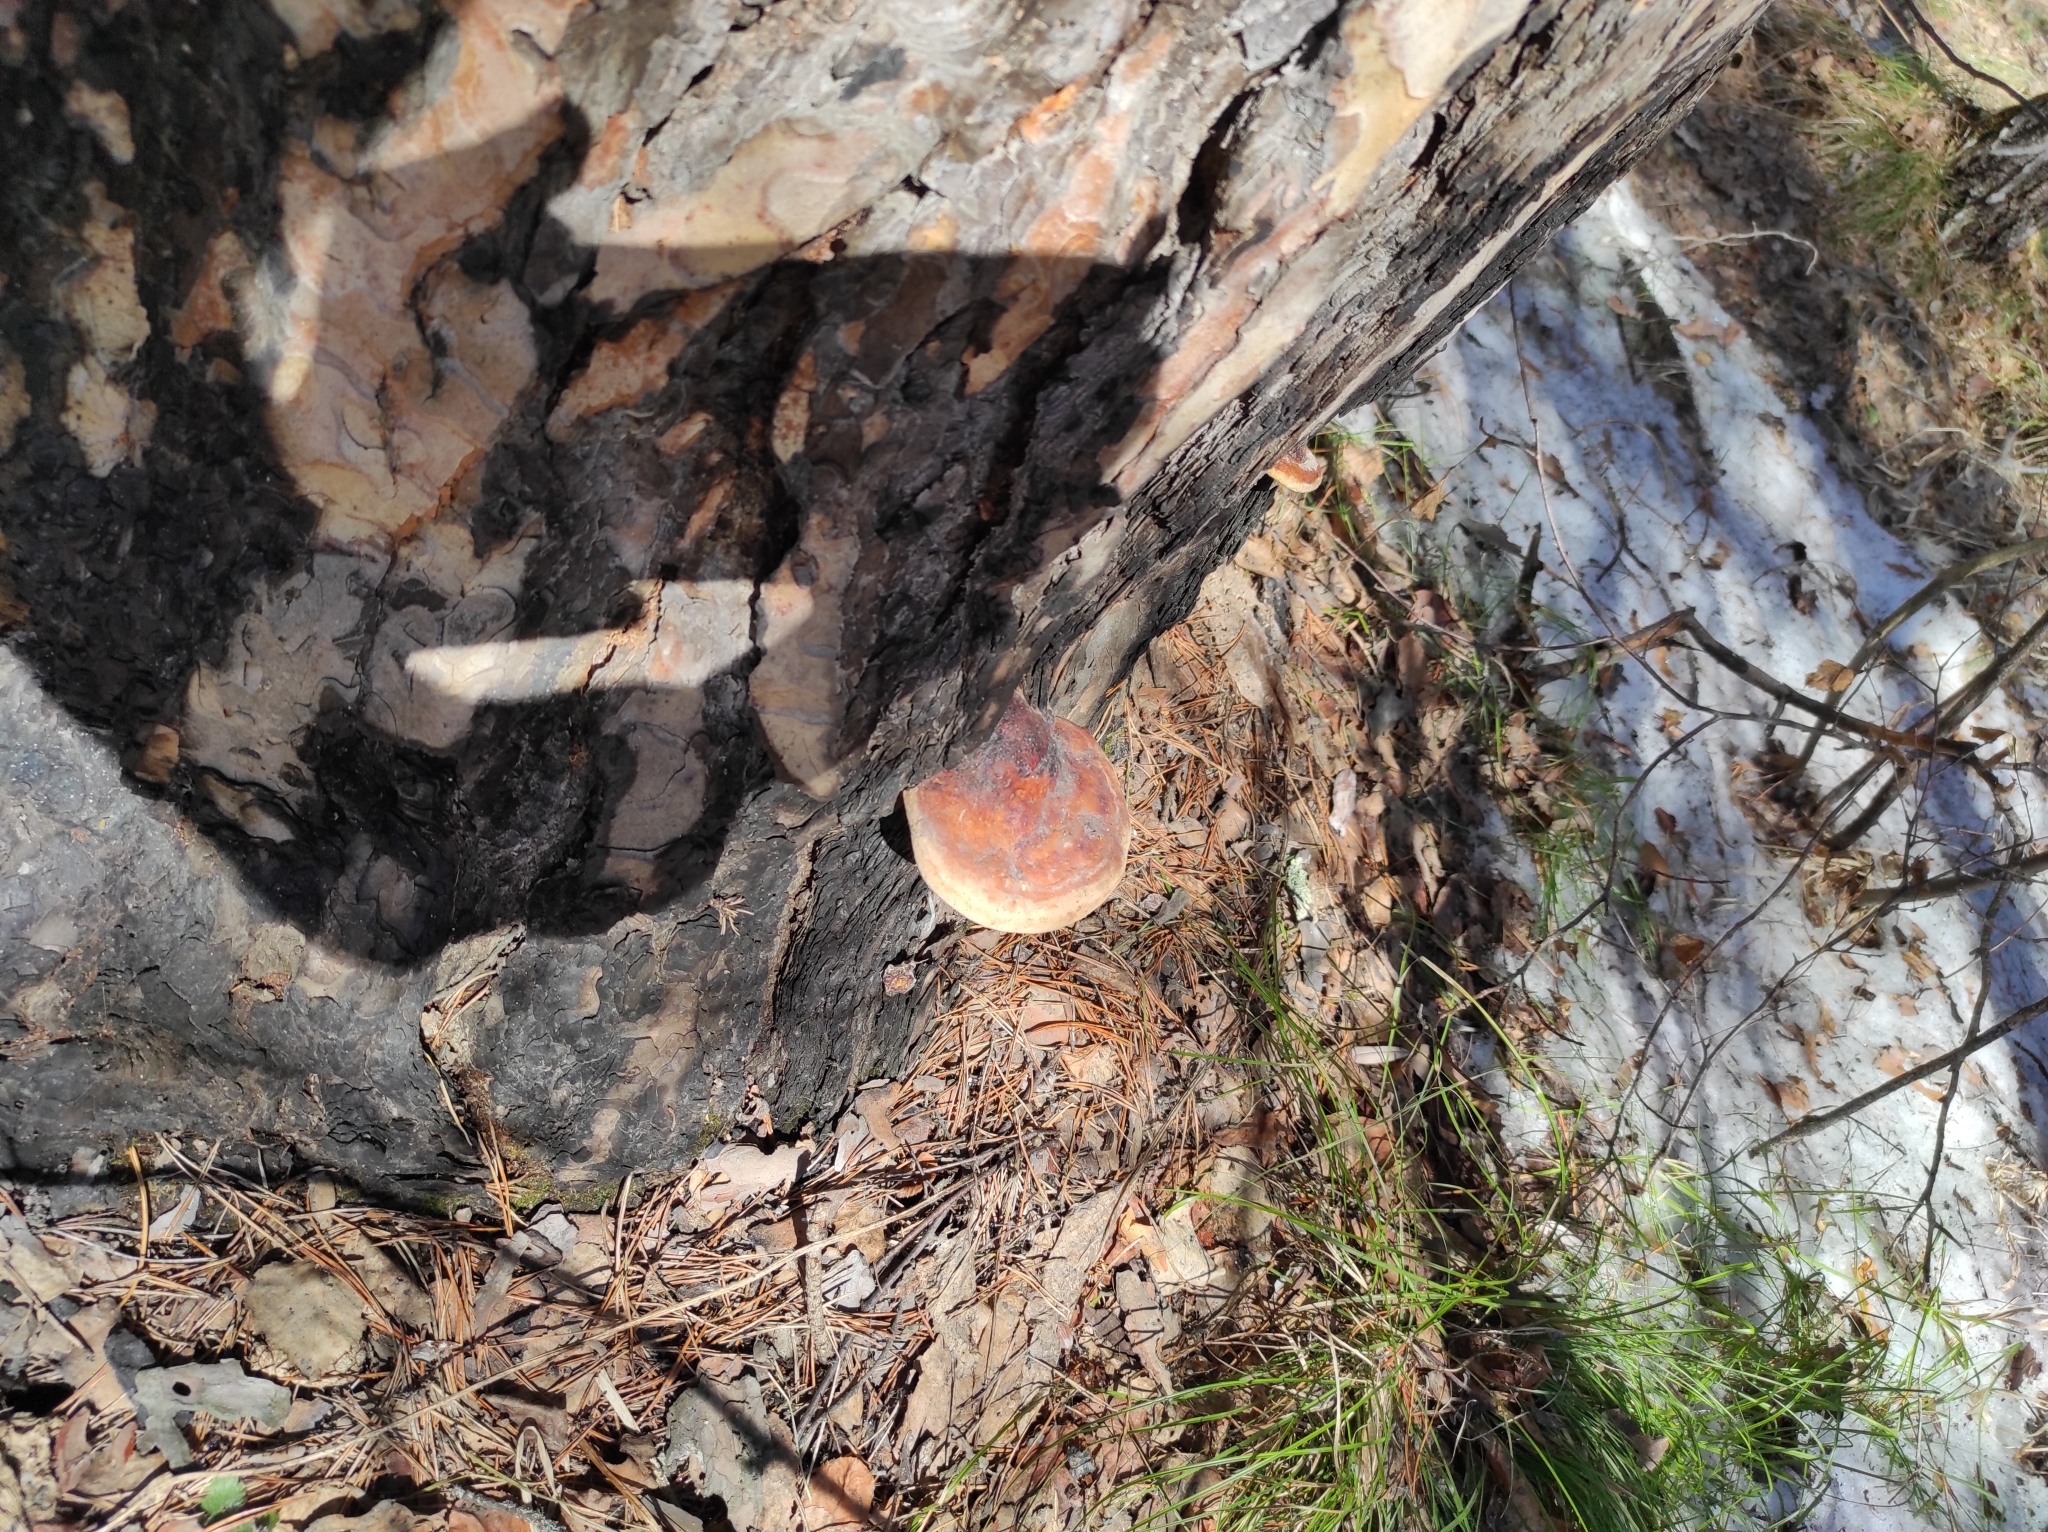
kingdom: Plantae
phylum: Tracheophyta
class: Pinopsida
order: Pinales
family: Pinaceae
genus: Pinus
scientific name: Pinus sylvestris
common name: Scots pine
